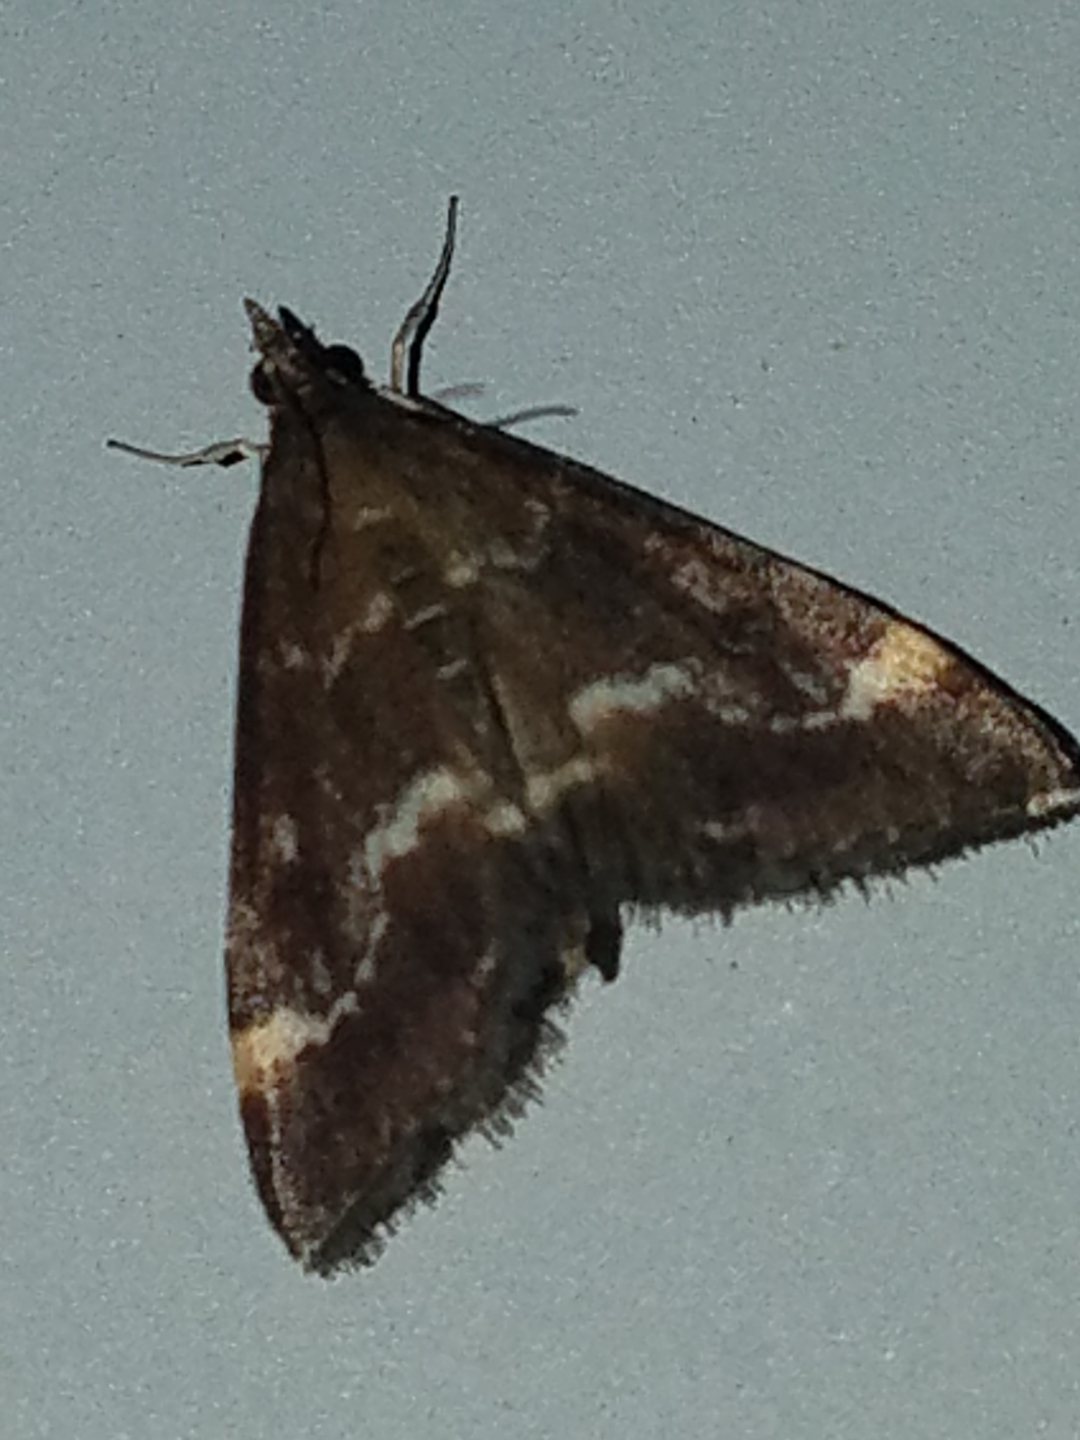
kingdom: Animalia
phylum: Arthropoda
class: Insecta
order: Lepidoptera
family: Crambidae
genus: Pyrausta
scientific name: Pyrausta nicalis
